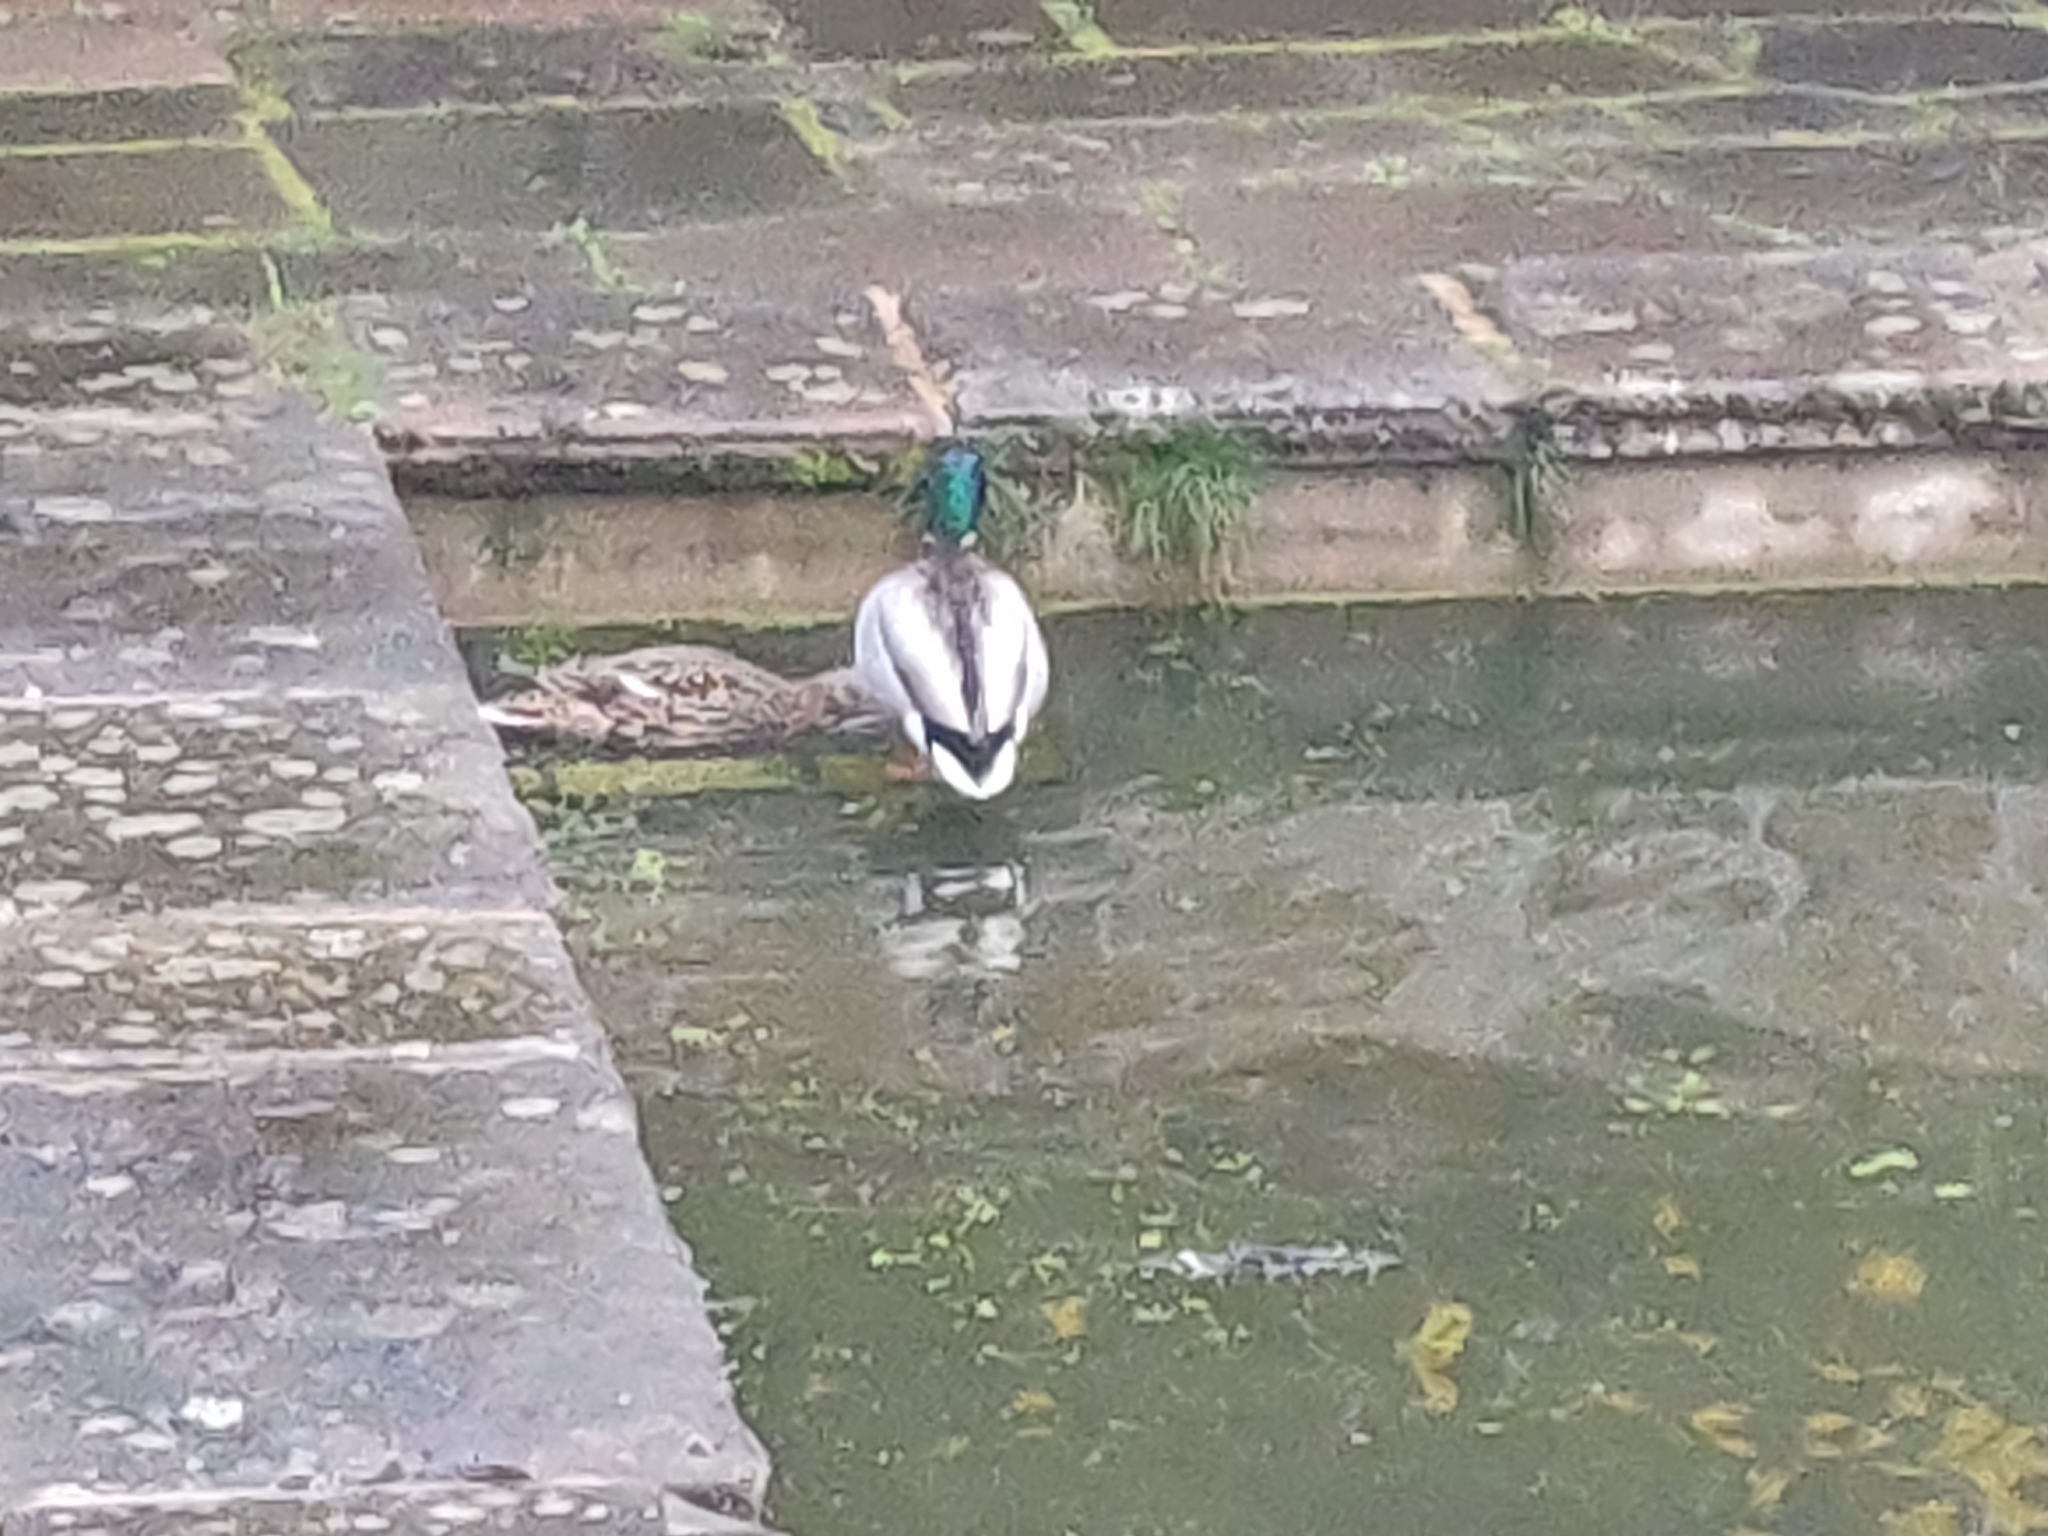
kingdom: Animalia
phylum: Chordata
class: Aves
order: Anseriformes
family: Anatidae
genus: Anas
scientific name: Anas platyrhynchos
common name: Mallard
